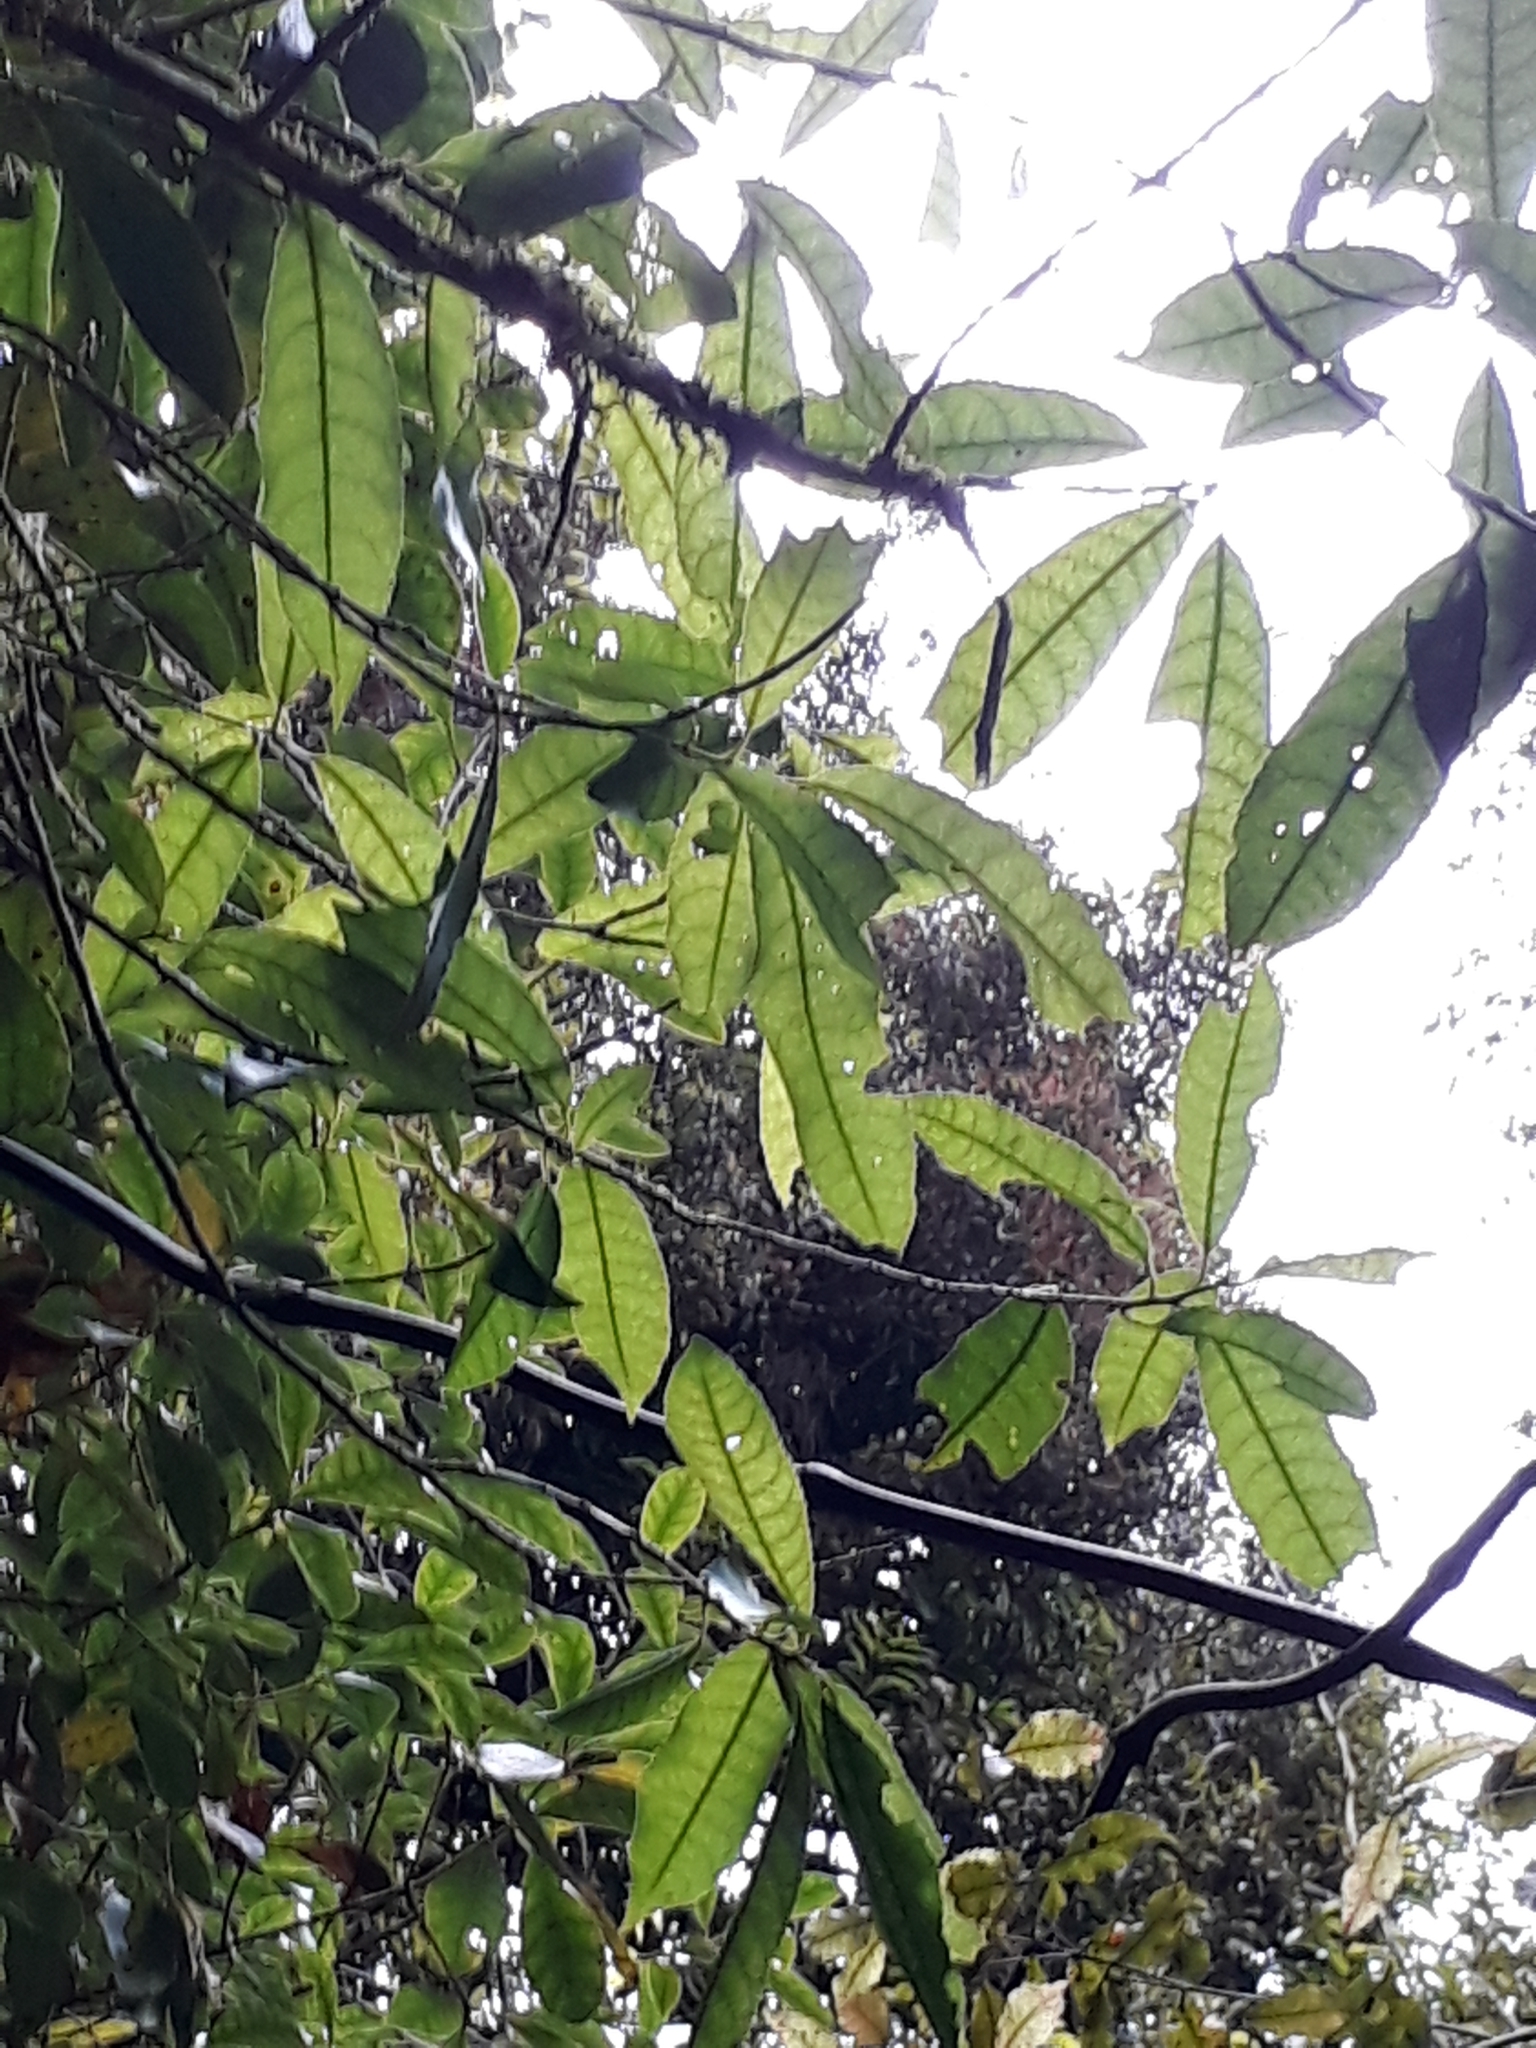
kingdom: Plantae
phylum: Tracheophyta
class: Magnoliopsida
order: Malpighiales
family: Violaceae
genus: Melicytus
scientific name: Melicytus ramiflorus
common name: Mahoe
